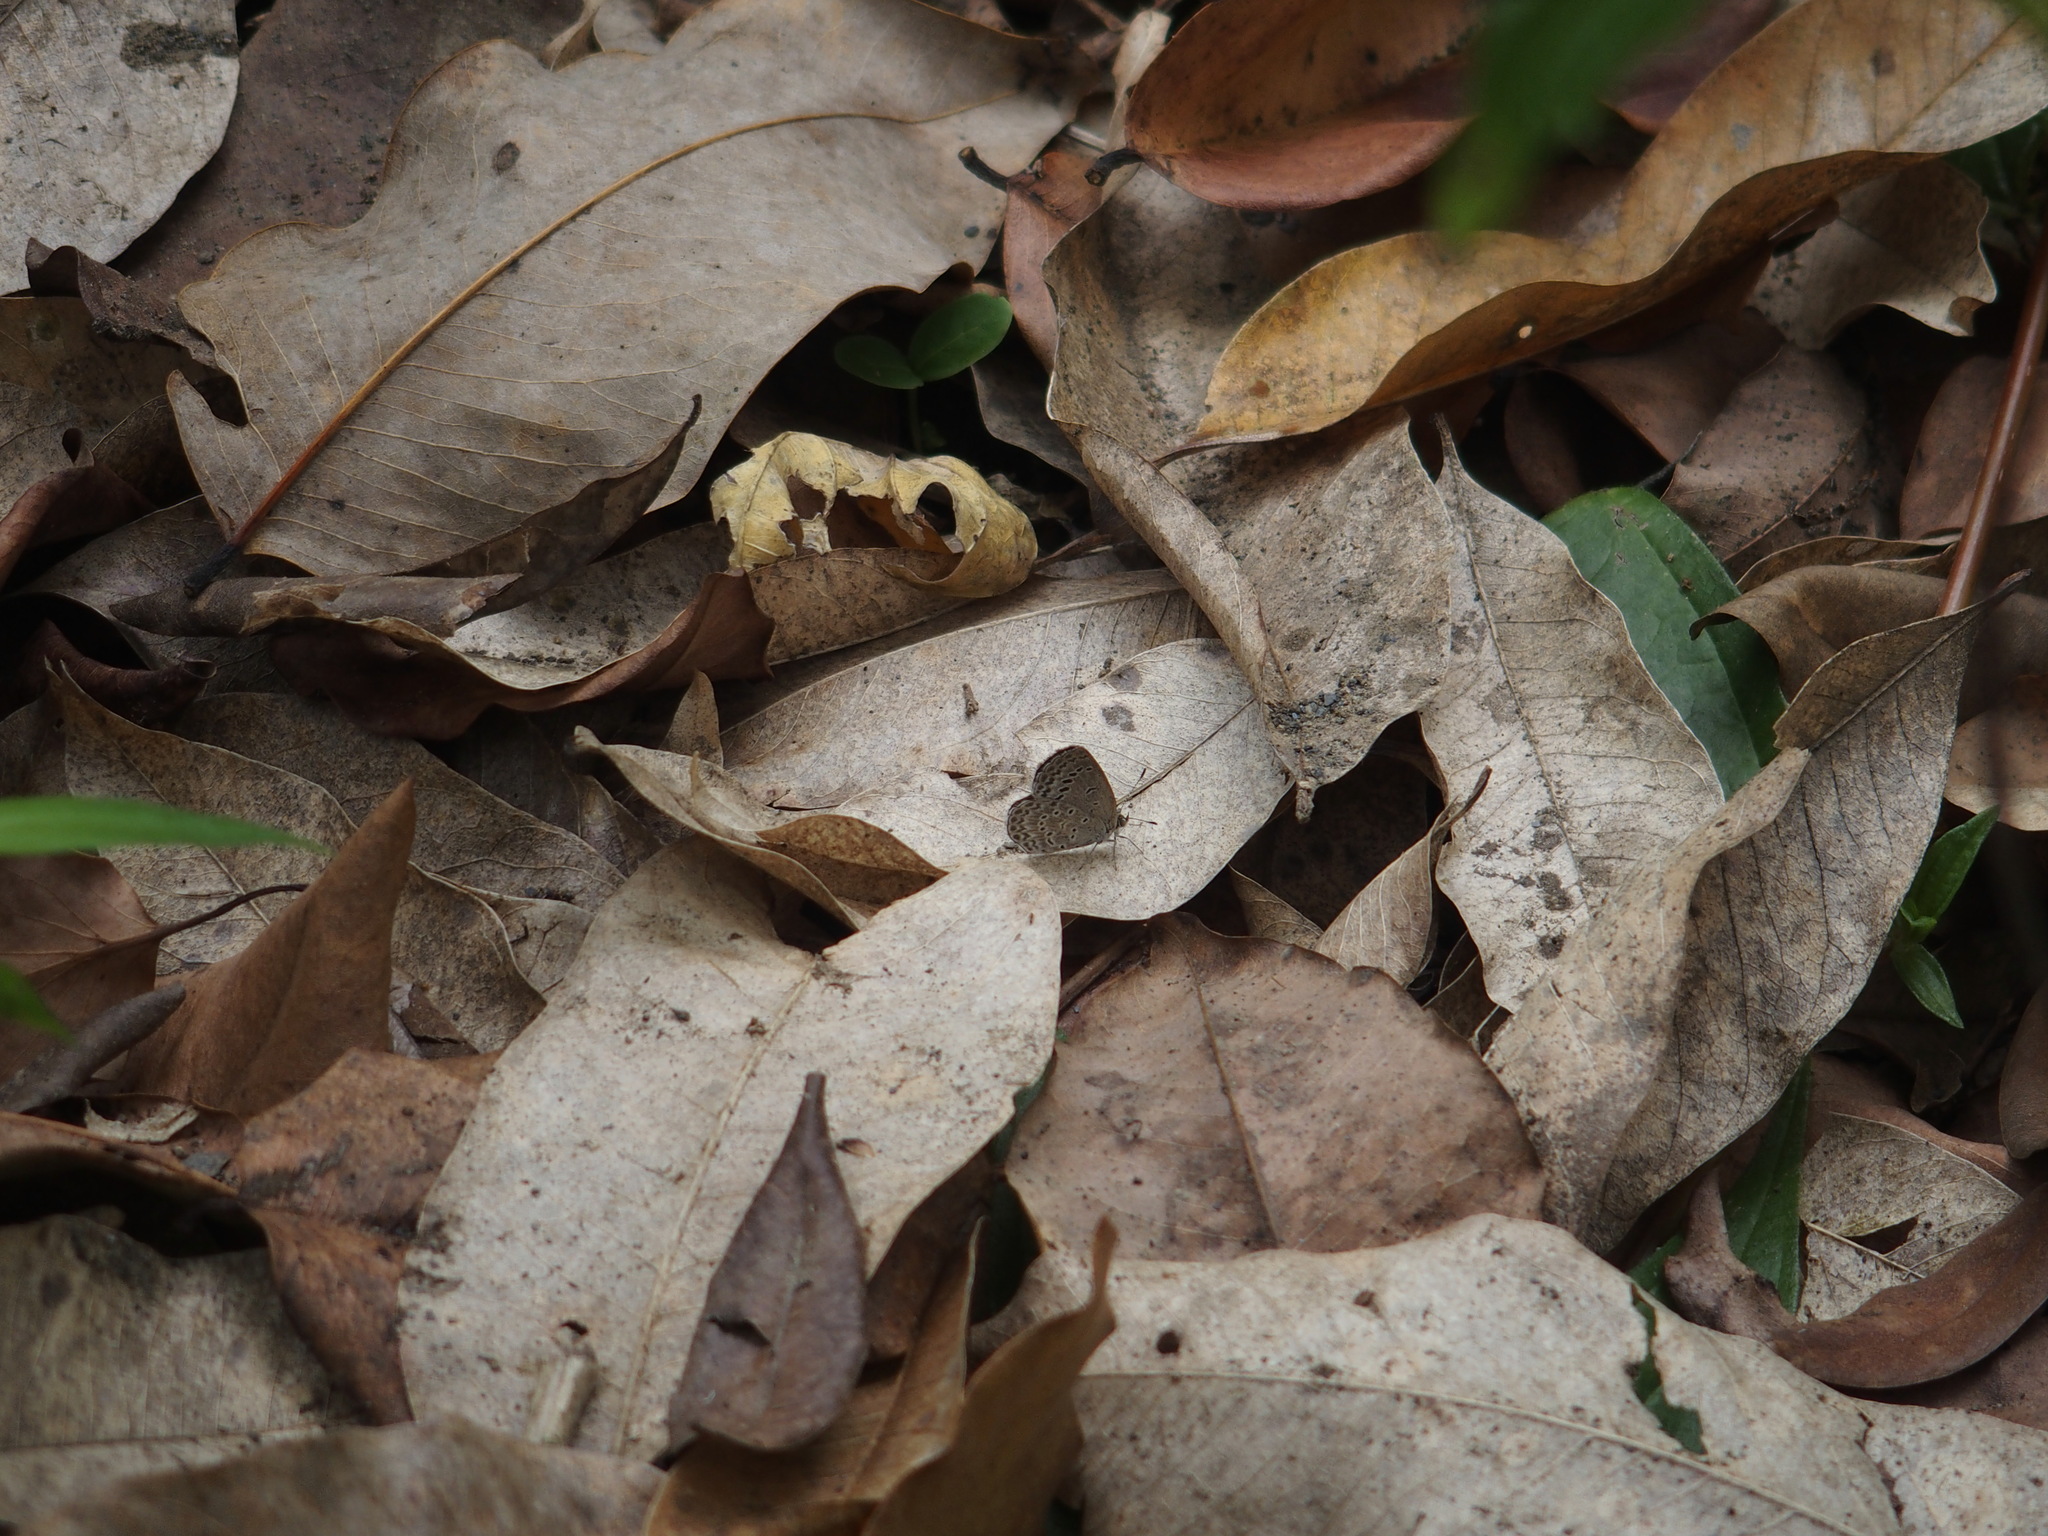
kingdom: Animalia
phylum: Arthropoda
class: Insecta
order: Lepidoptera
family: Lycaenidae
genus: Pseudozizeeria
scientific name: Pseudozizeeria maha
